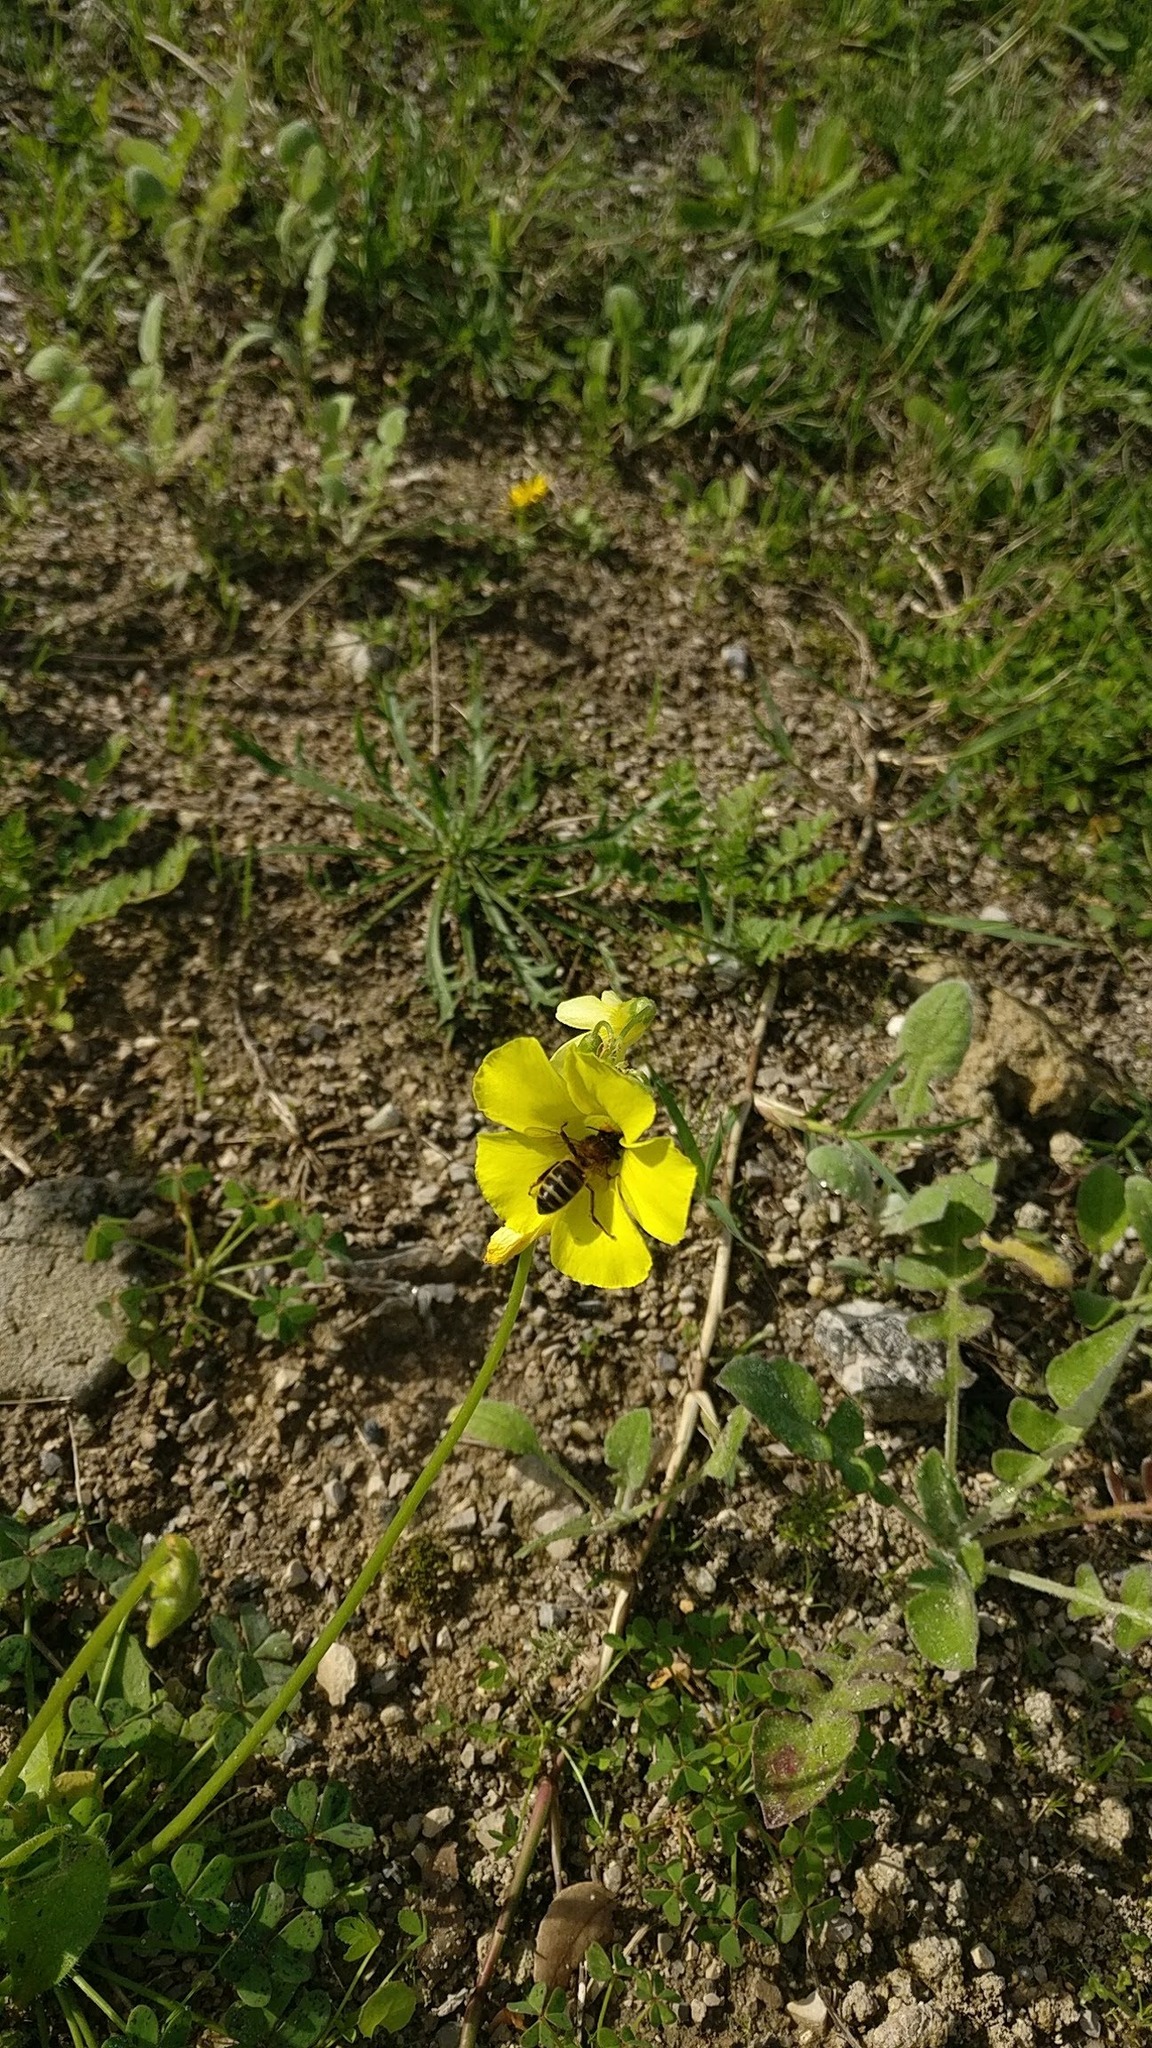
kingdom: Animalia
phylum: Arthropoda
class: Insecta
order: Hymenoptera
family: Apidae
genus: Apis
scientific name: Apis mellifera
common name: Honey bee
